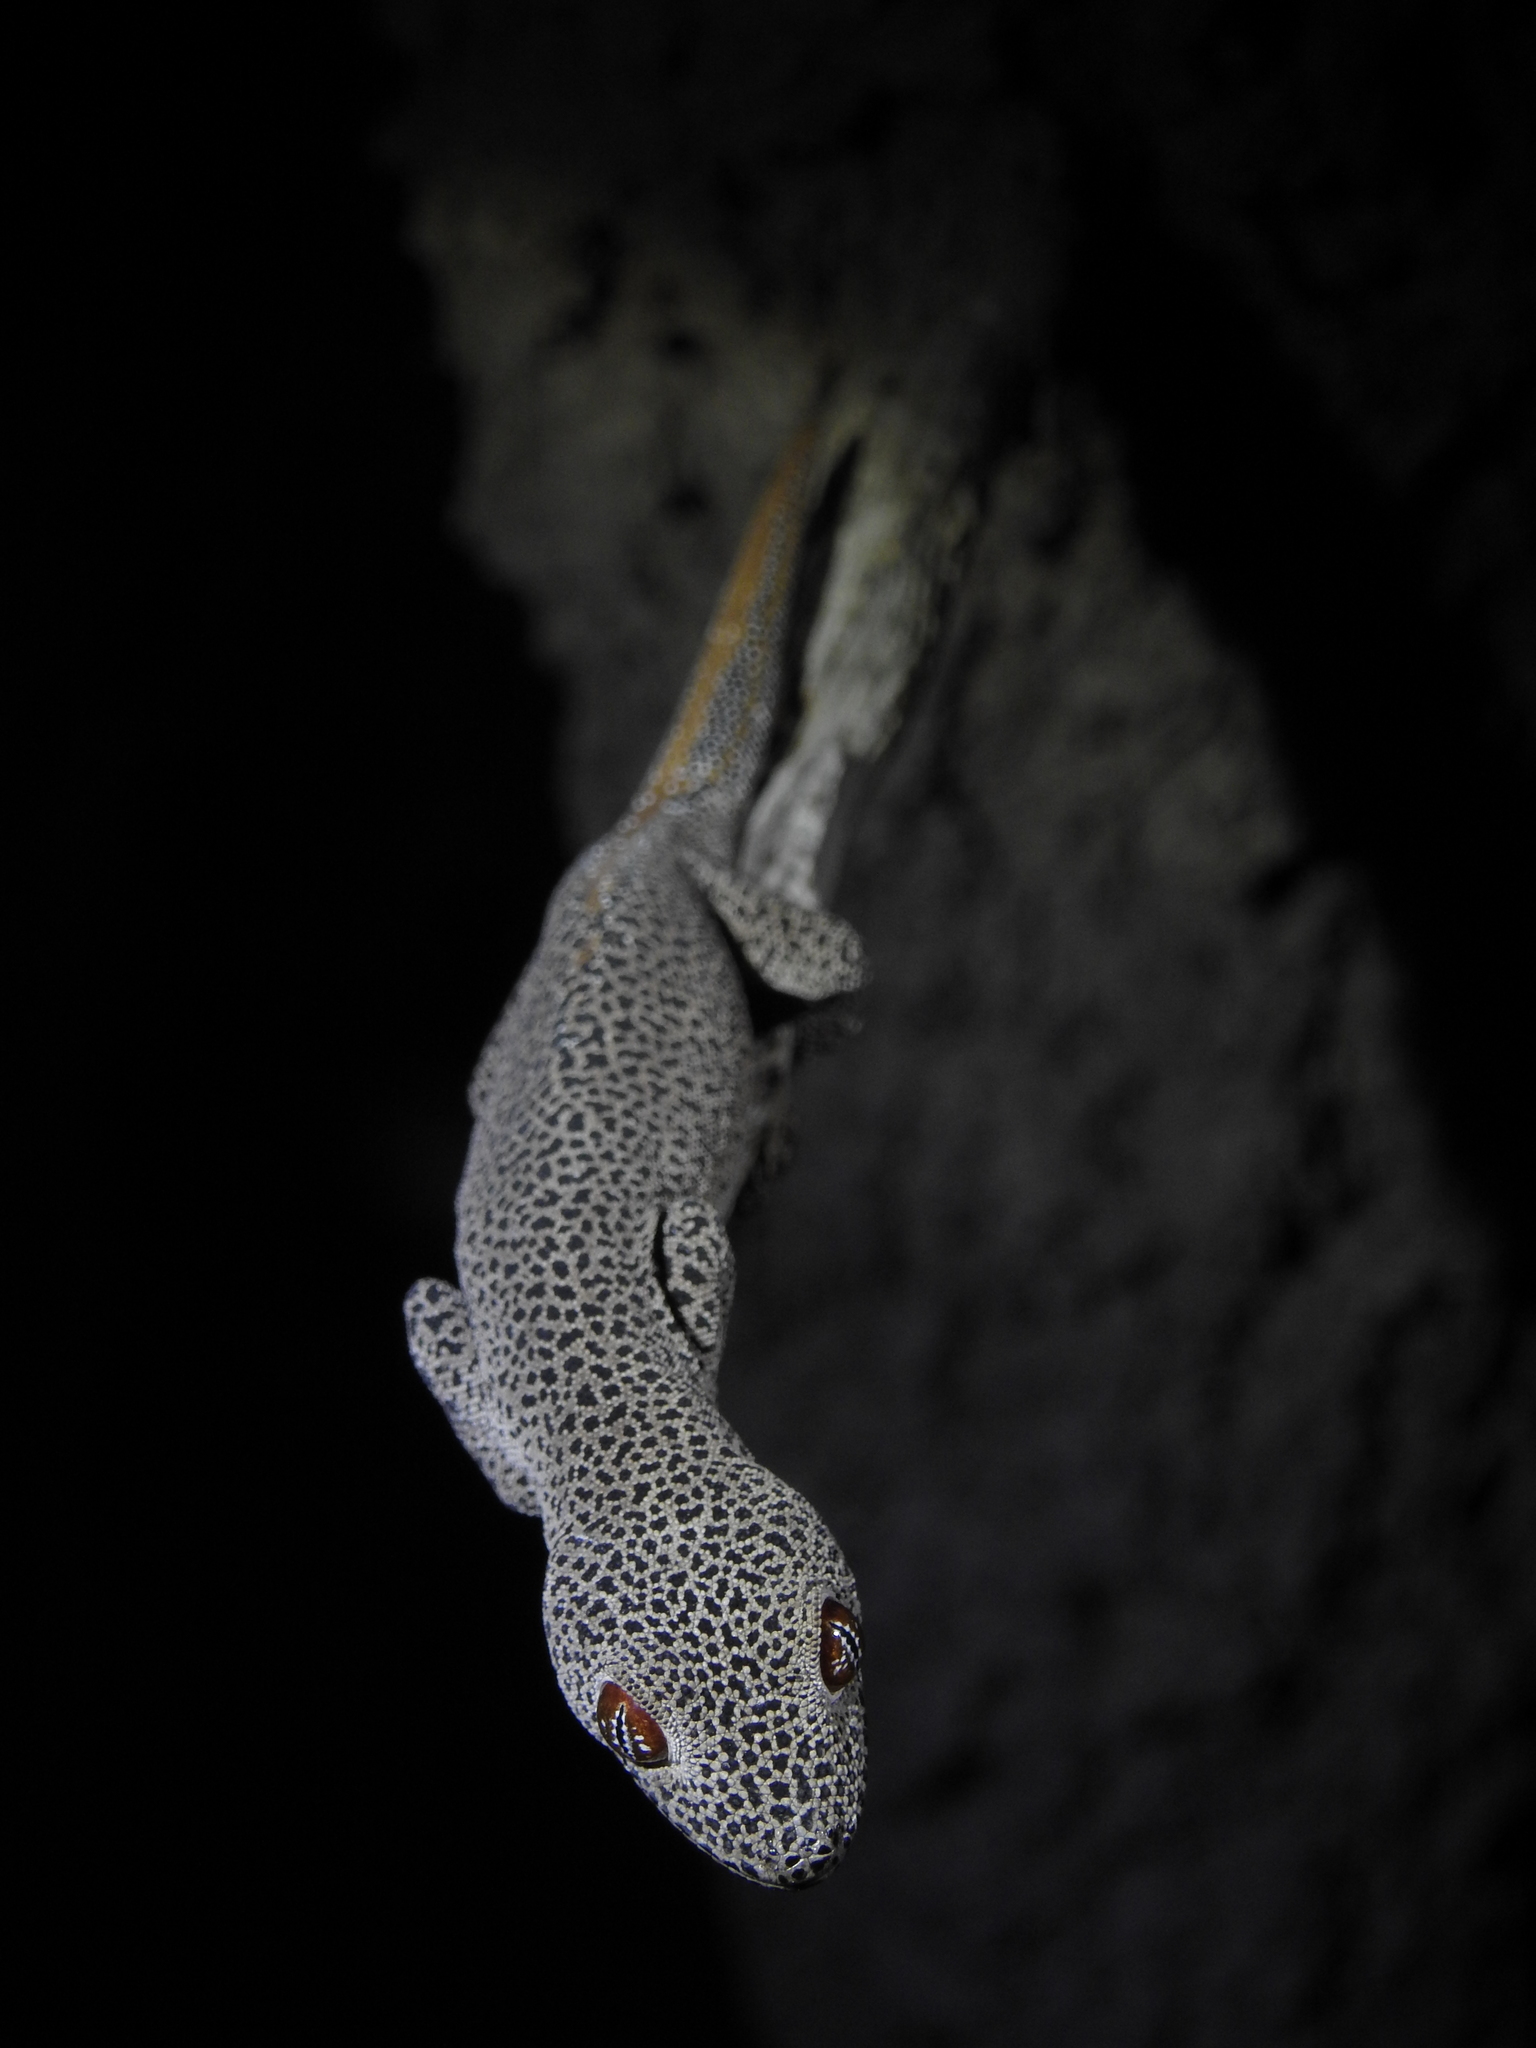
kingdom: Animalia
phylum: Chordata
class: Squamata
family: Diplodactylidae
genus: Strophurus
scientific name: Strophurus taenicauda
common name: Golden spiny-tailed gecko
